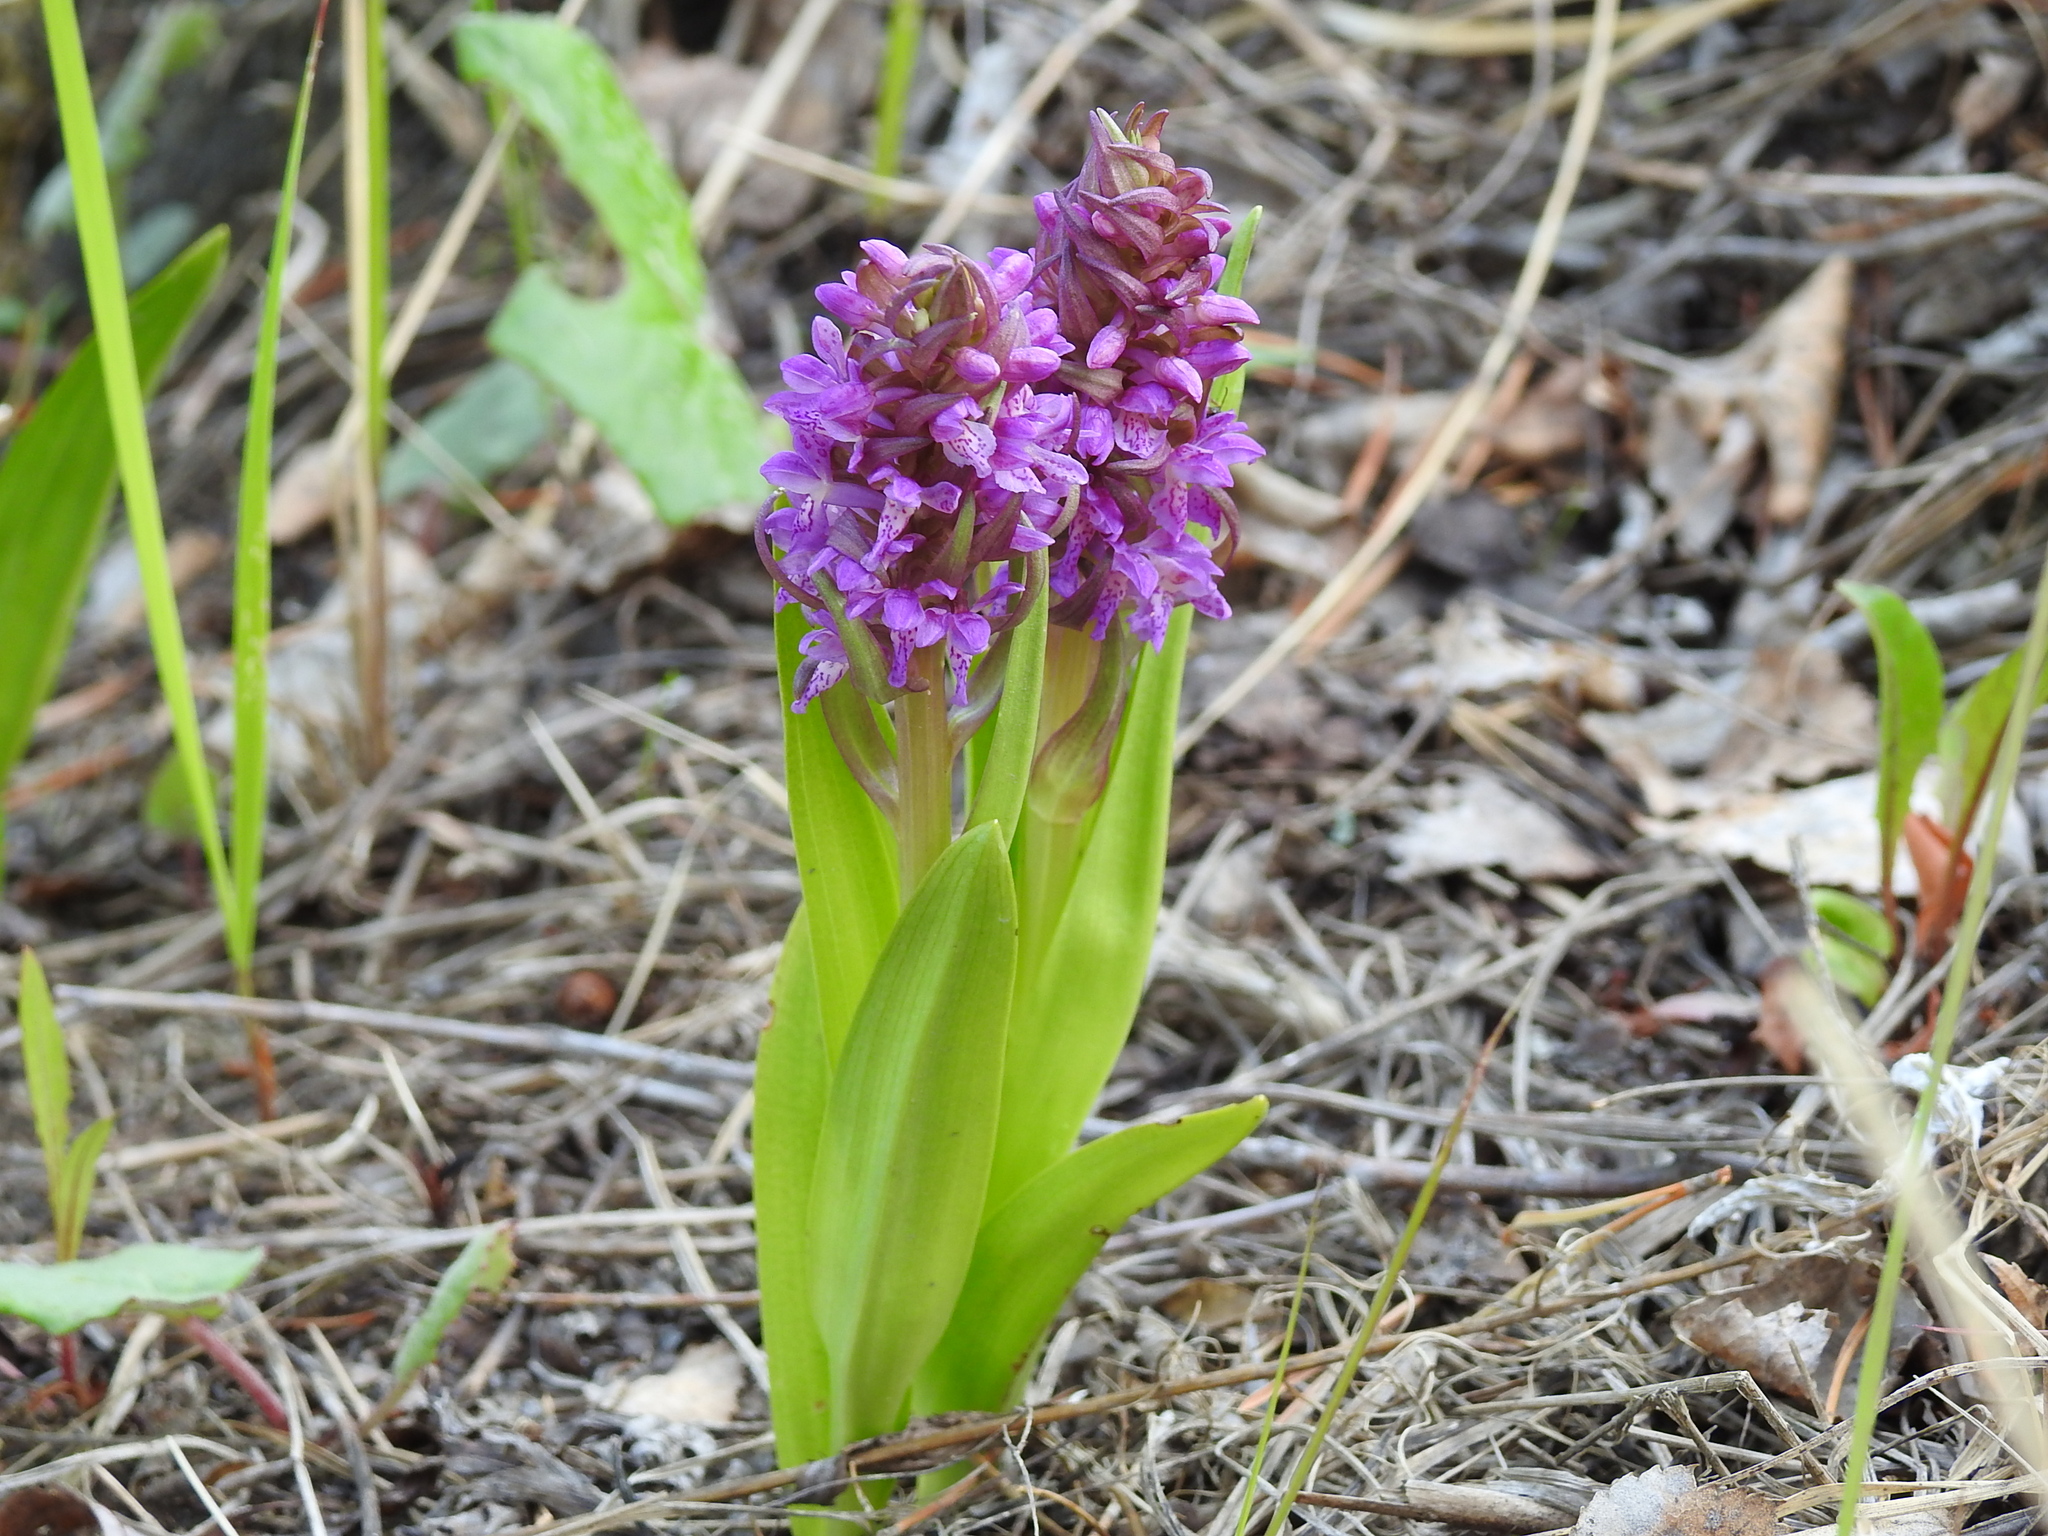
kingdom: Plantae
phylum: Tracheophyta
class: Liliopsida
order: Asparagales
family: Orchidaceae
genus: Dactylorhiza
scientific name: Dactylorhiza incarnata
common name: Early marsh-orchid
